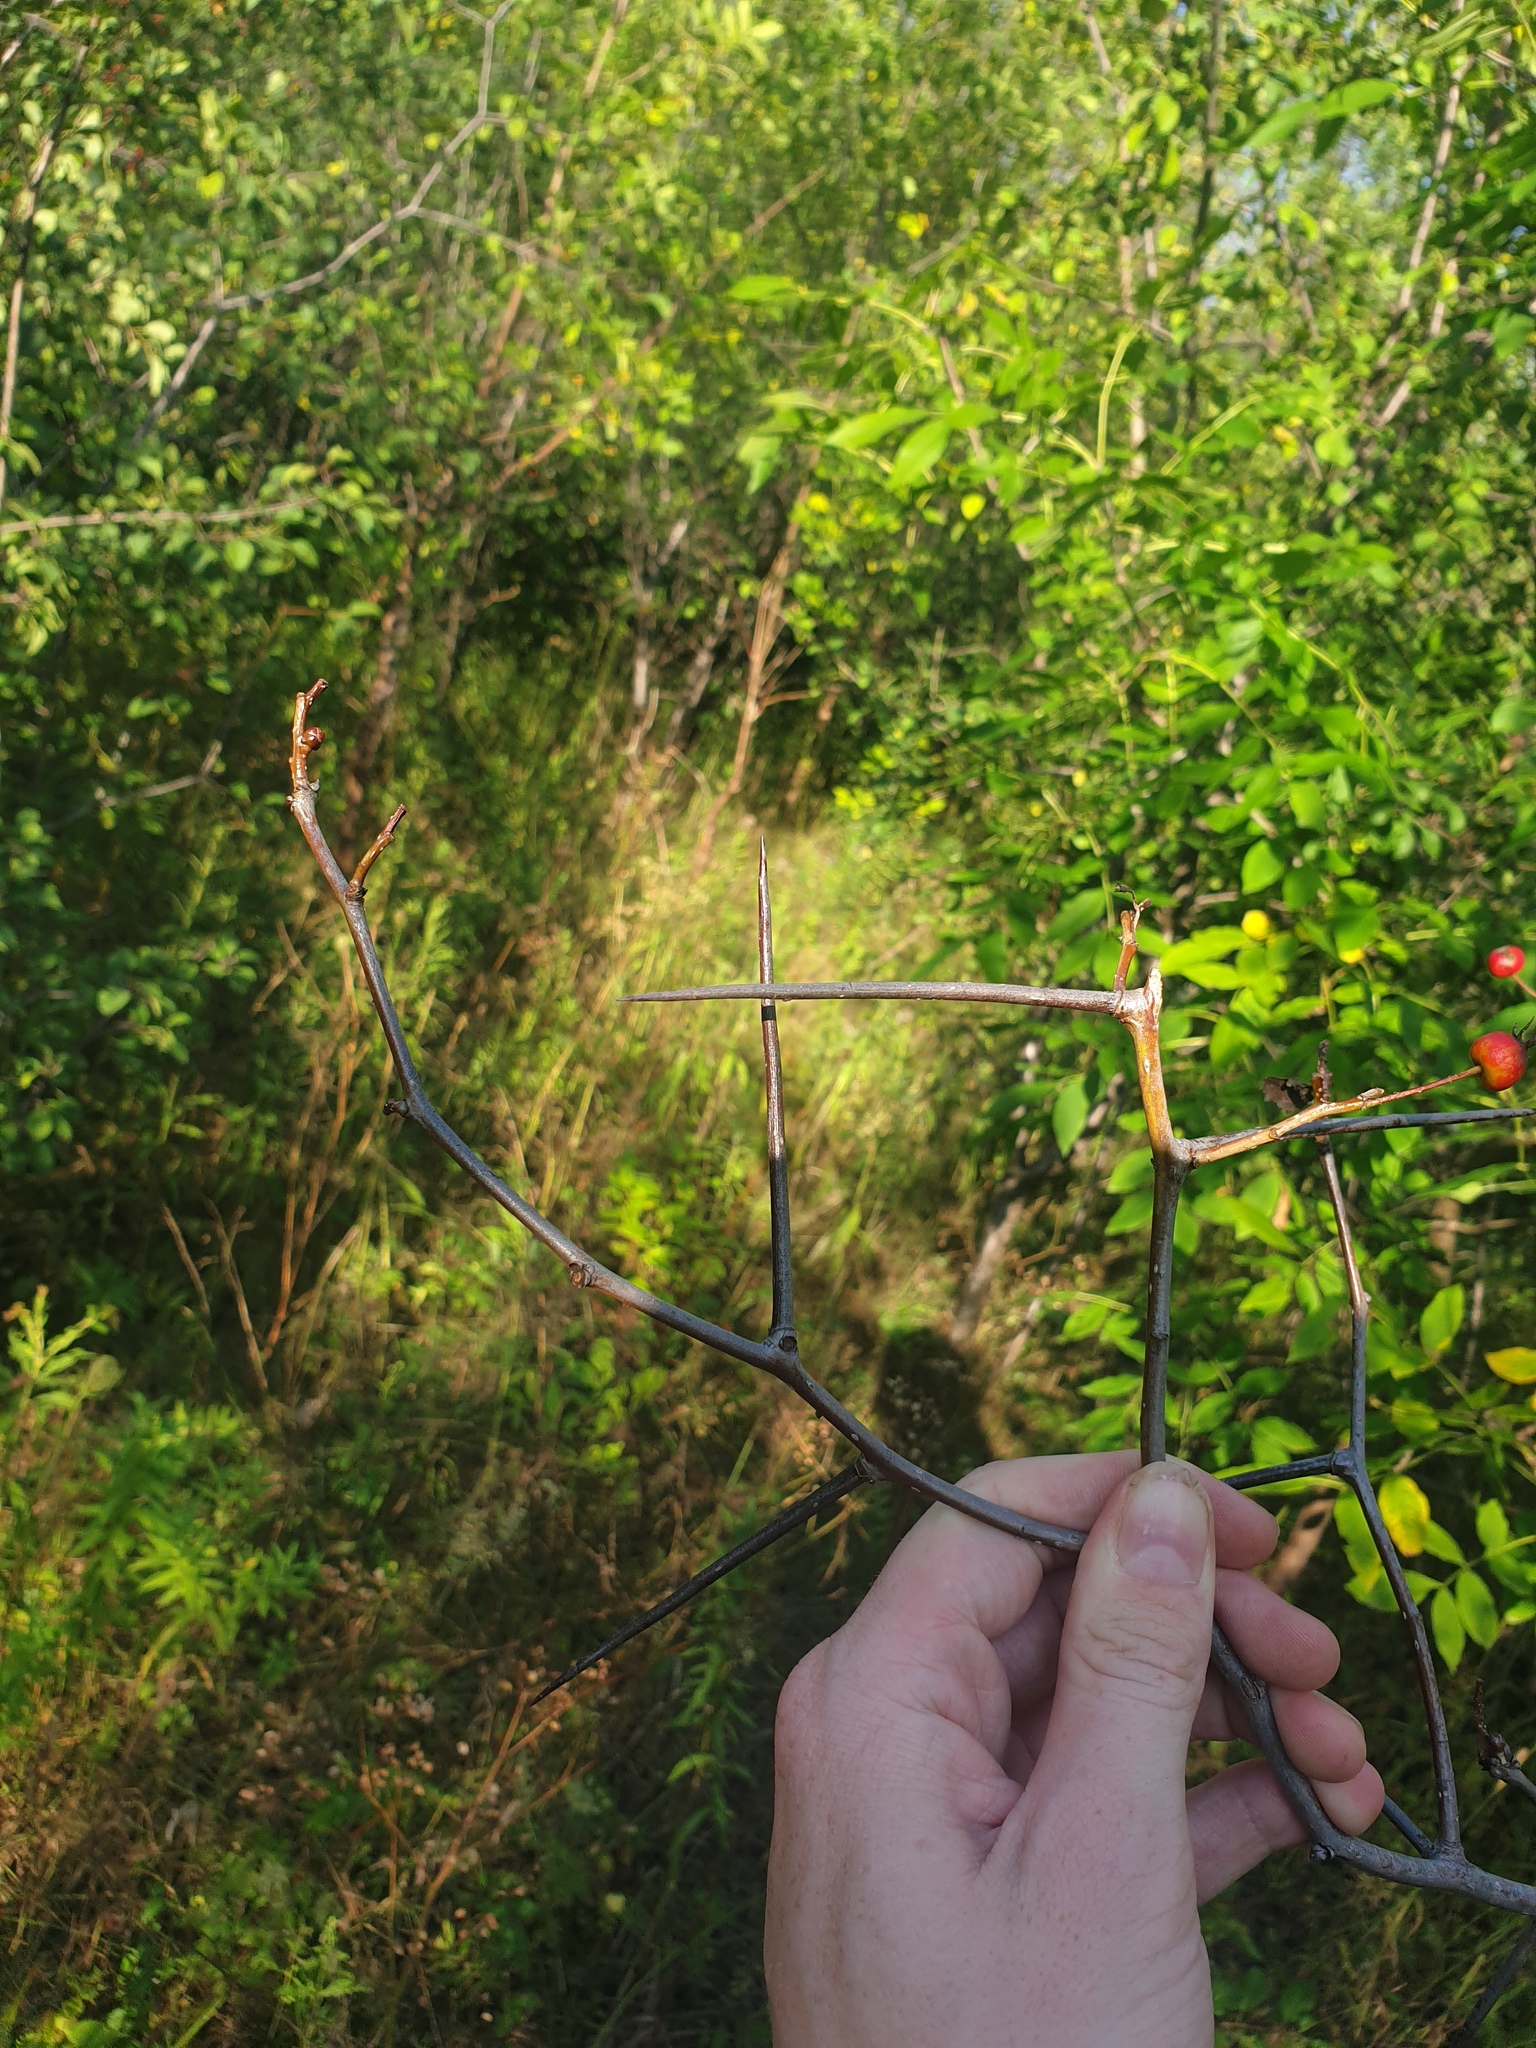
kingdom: Plantae
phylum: Tracheophyta
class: Magnoliopsida
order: Rosales
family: Rosaceae
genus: Crataegus
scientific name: Crataegus scabrida
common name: Rough hawthorn
